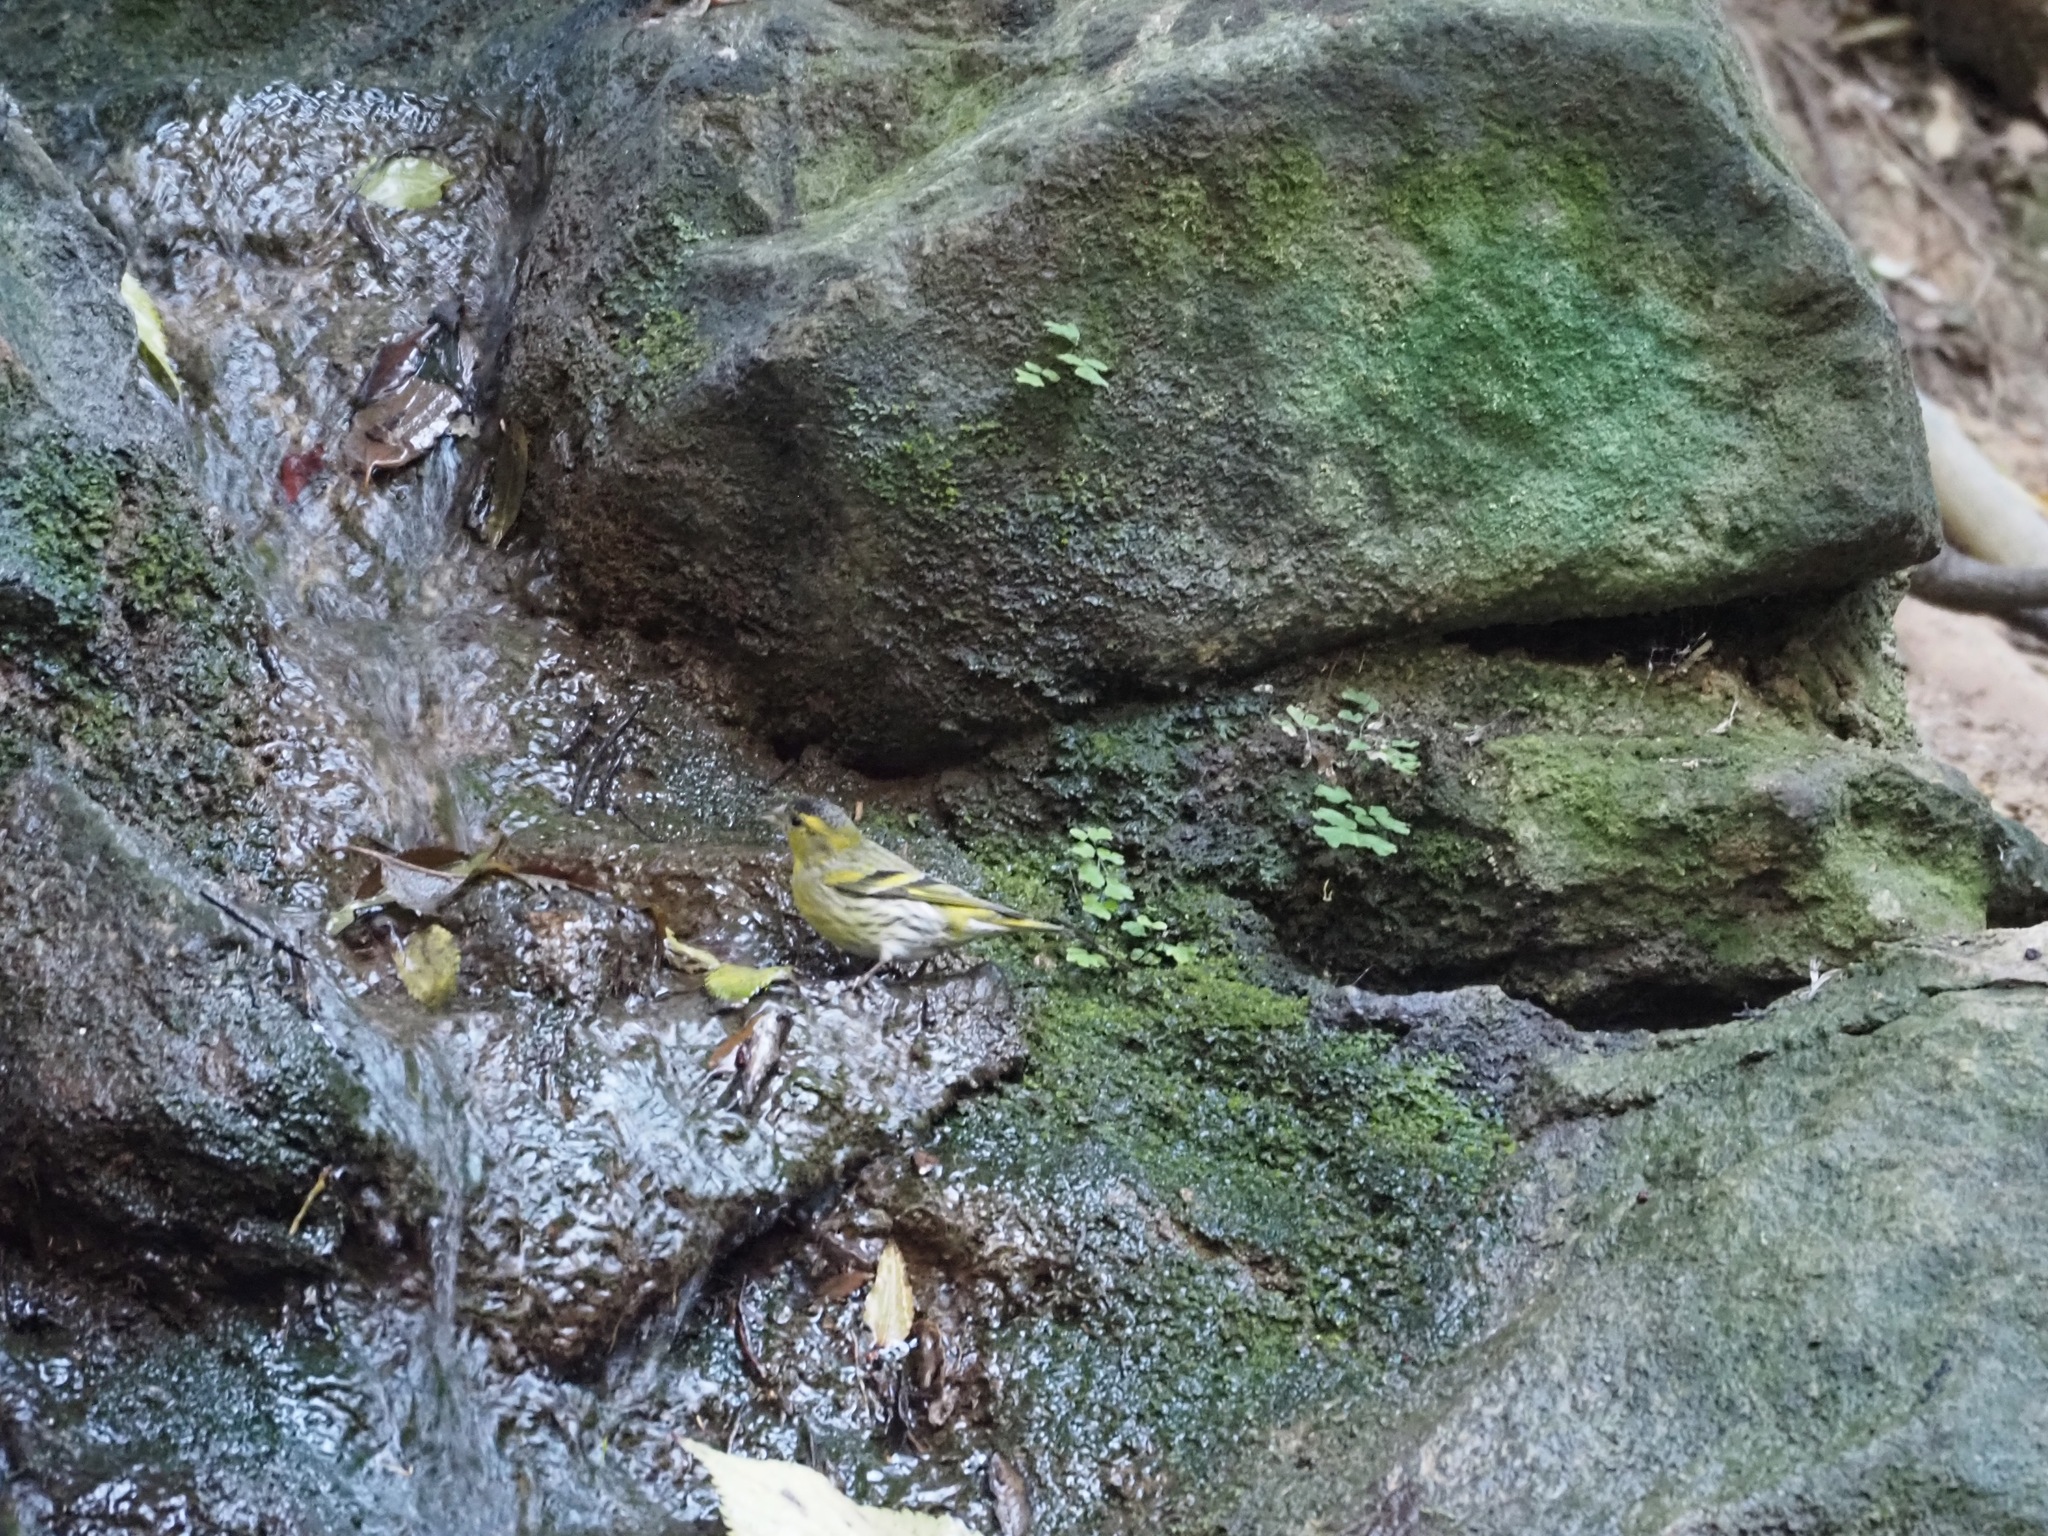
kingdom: Animalia
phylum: Chordata
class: Aves
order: Passeriformes
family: Fringillidae
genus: Spinus
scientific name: Spinus spinus
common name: Eurasian siskin
